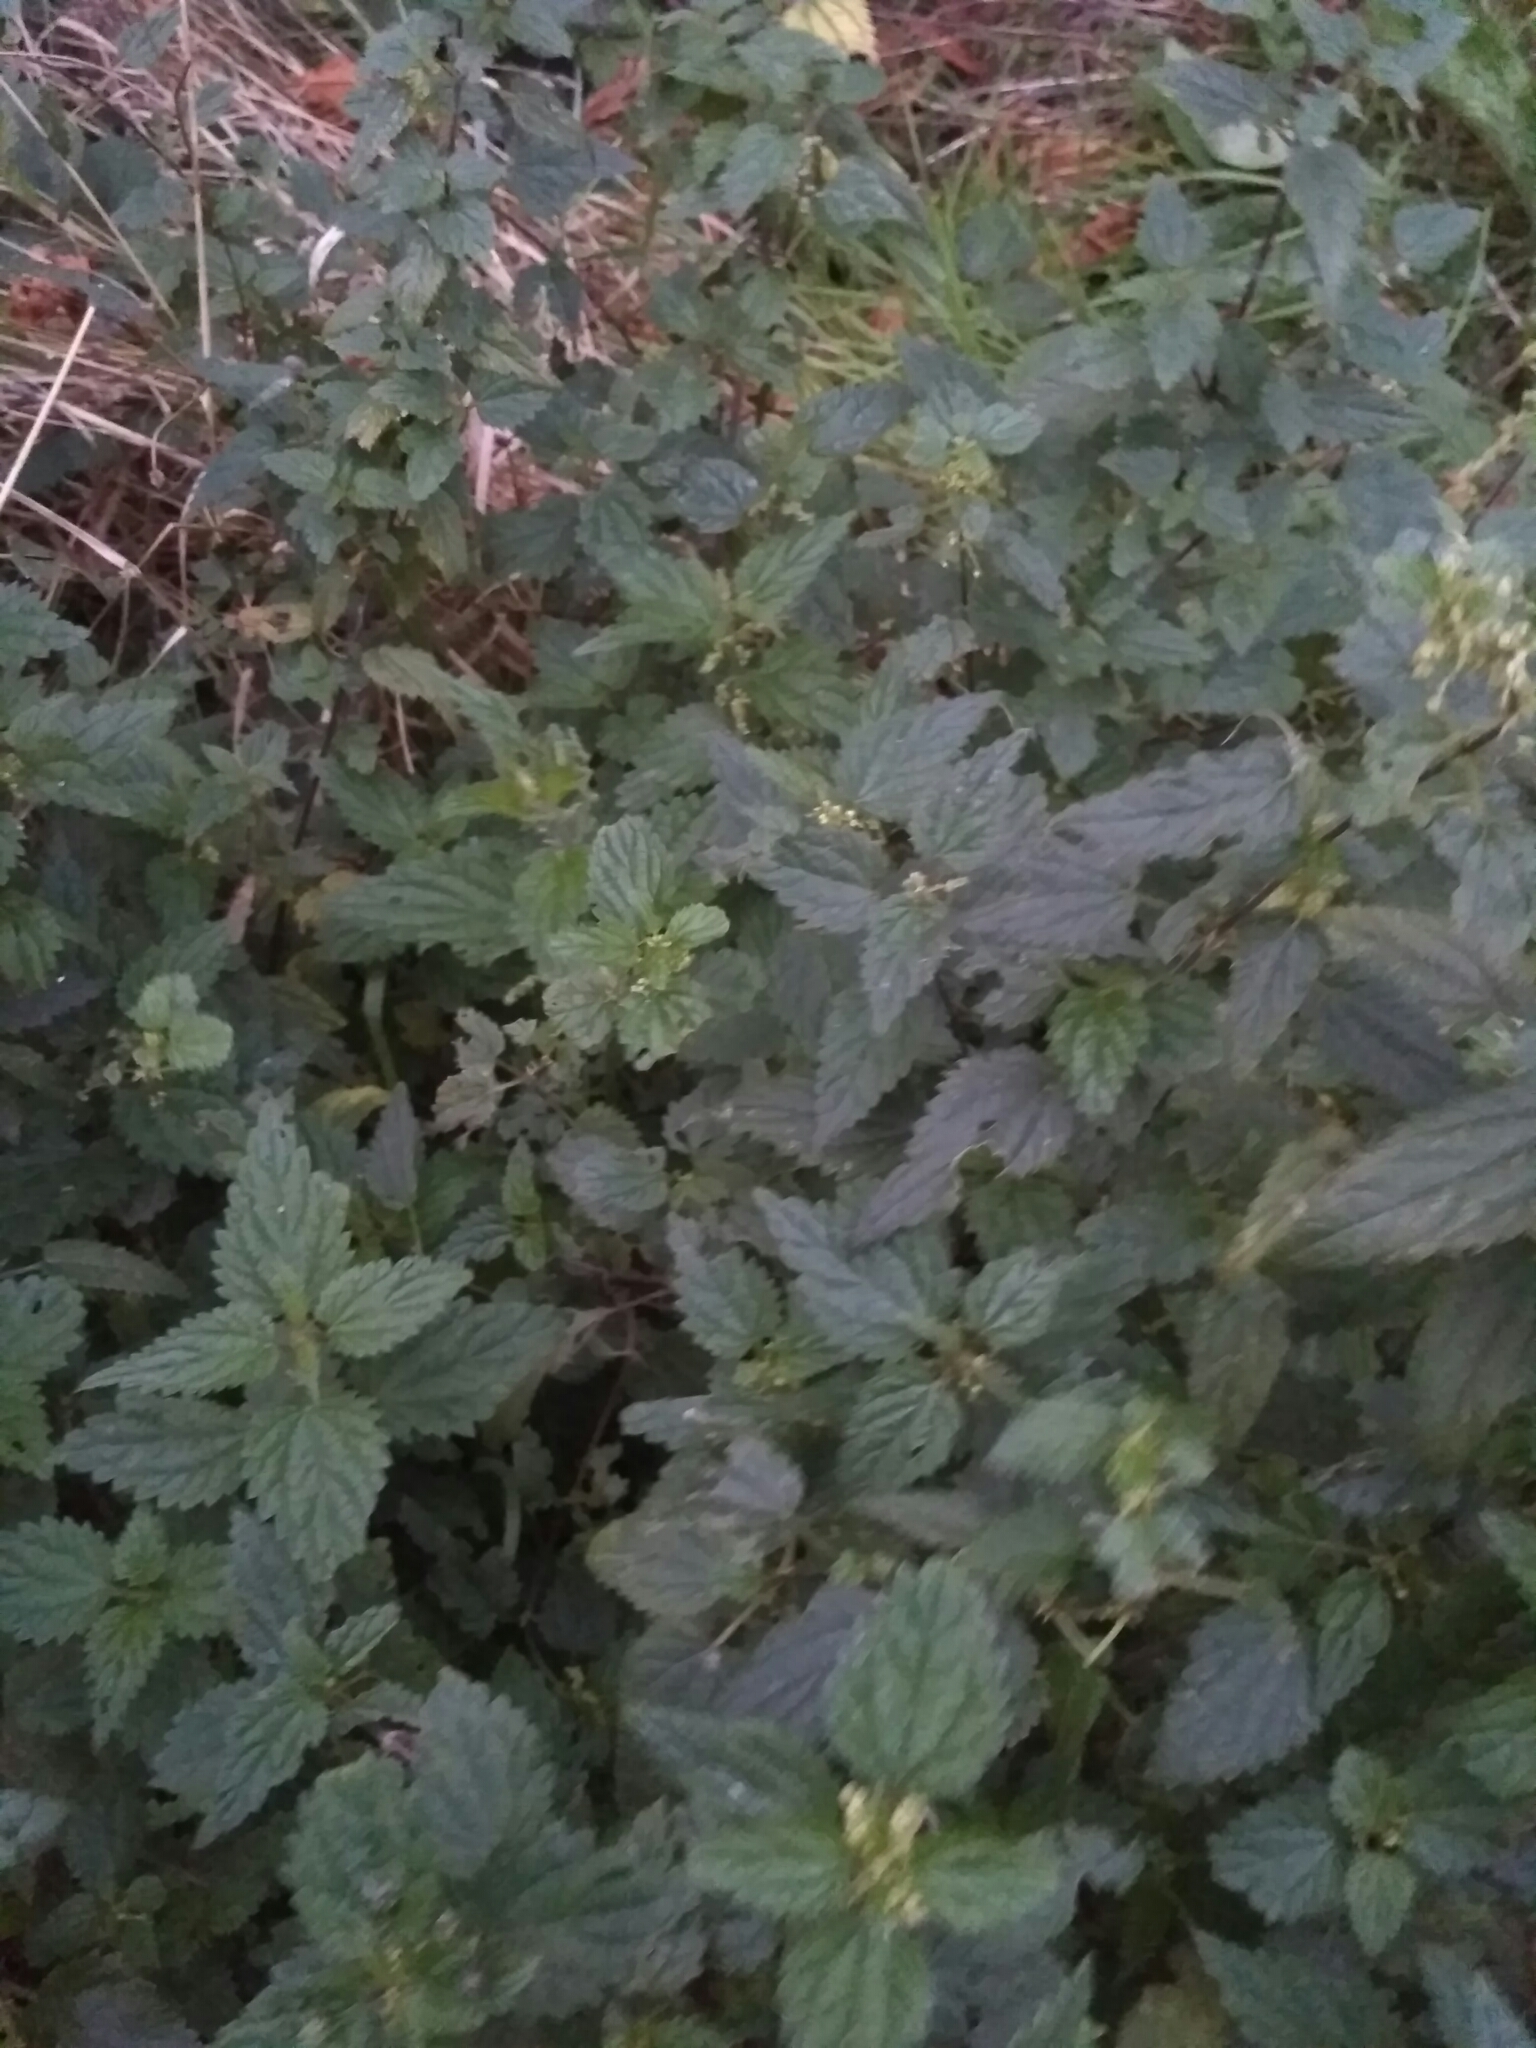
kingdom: Plantae
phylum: Tracheophyta
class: Magnoliopsida
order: Rosales
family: Urticaceae
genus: Urtica
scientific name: Urtica dioica
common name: Common nettle
